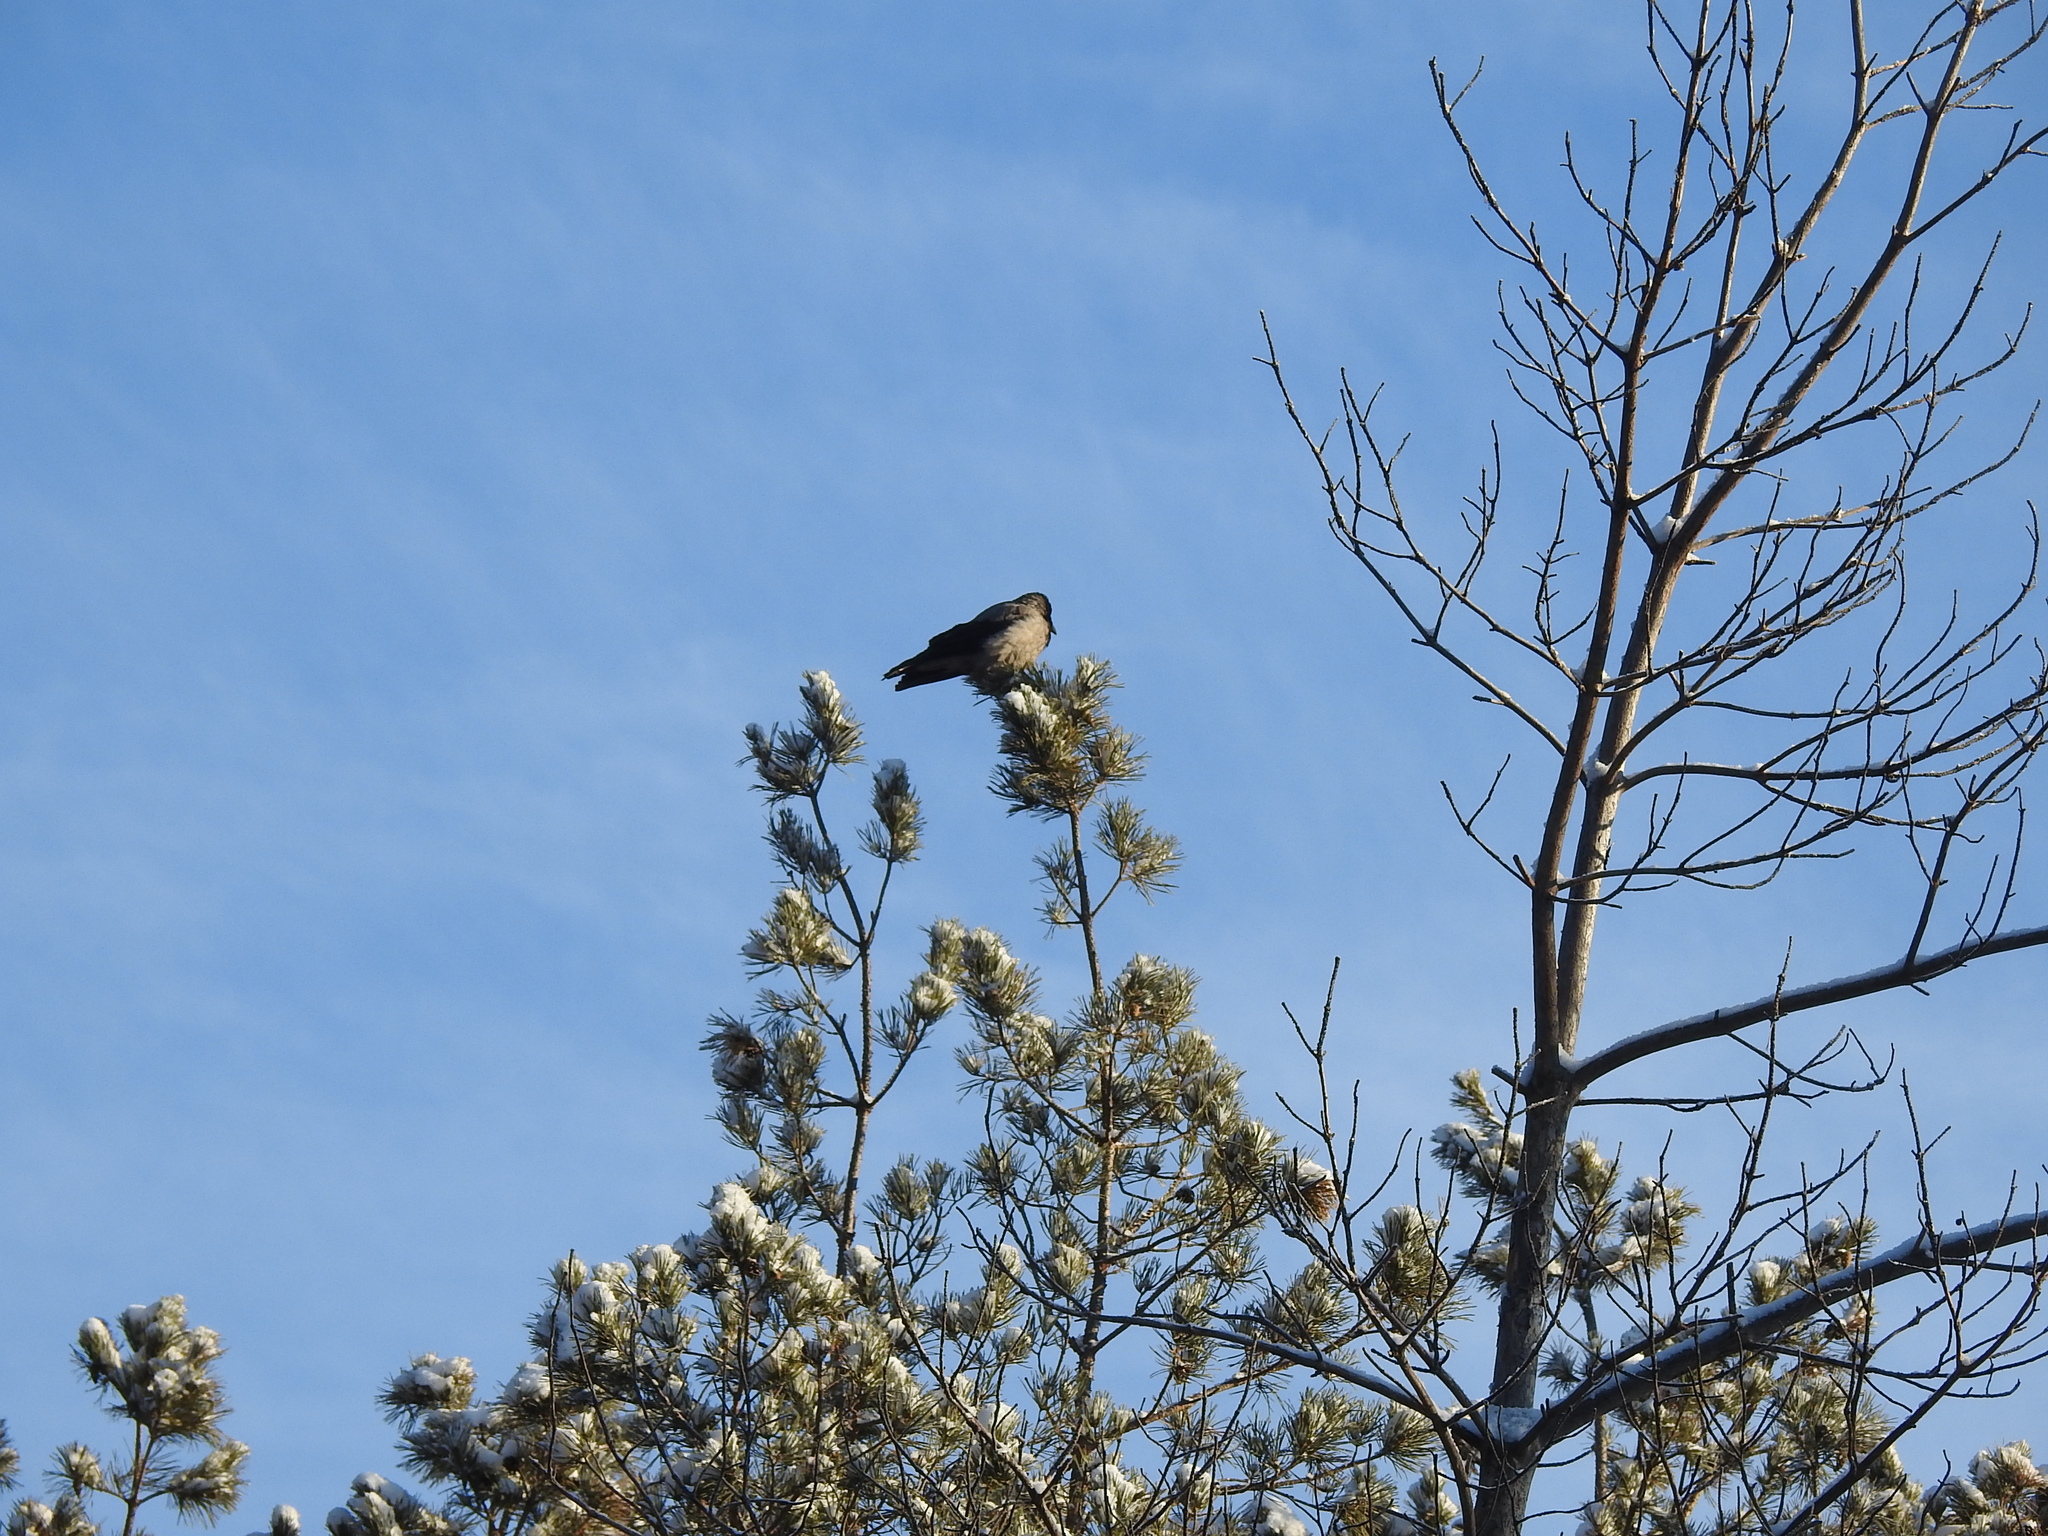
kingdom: Animalia
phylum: Chordata
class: Aves
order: Passeriformes
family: Corvidae
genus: Corvus
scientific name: Corvus cornix
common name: Hooded crow
